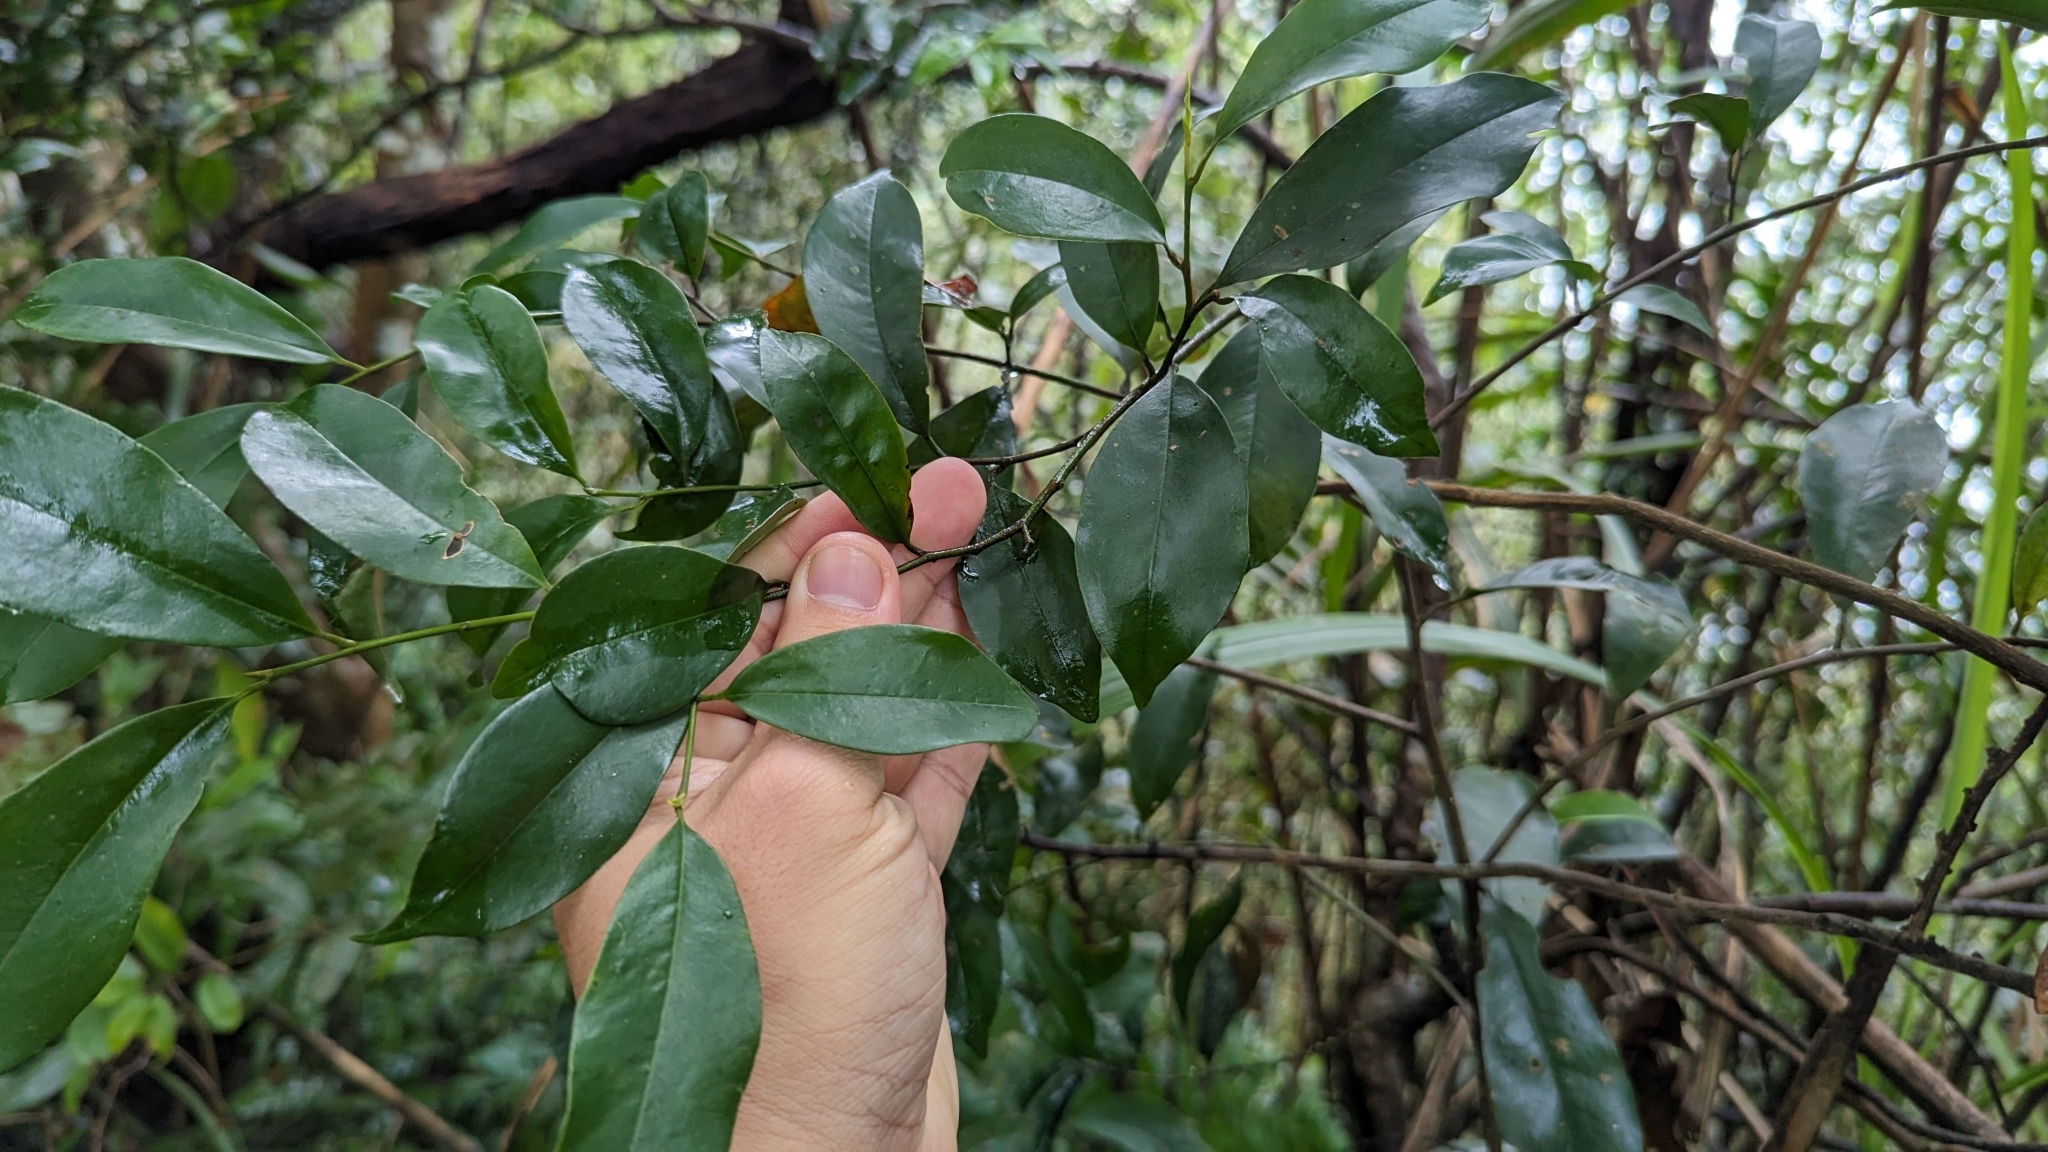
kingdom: Plantae
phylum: Tracheophyta
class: Magnoliopsida
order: Magnoliales
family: Magnoliaceae
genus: Magnolia
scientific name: Magnolia compressa
